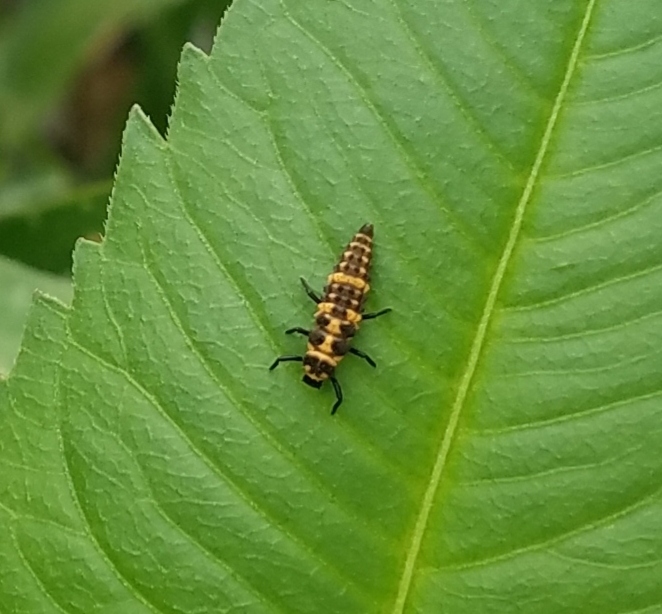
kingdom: Animalia
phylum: Arthropoda
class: Insecta
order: Coleoptera
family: Coccinellidae
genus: Coleomegilla
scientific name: Coleomegilla maculata
